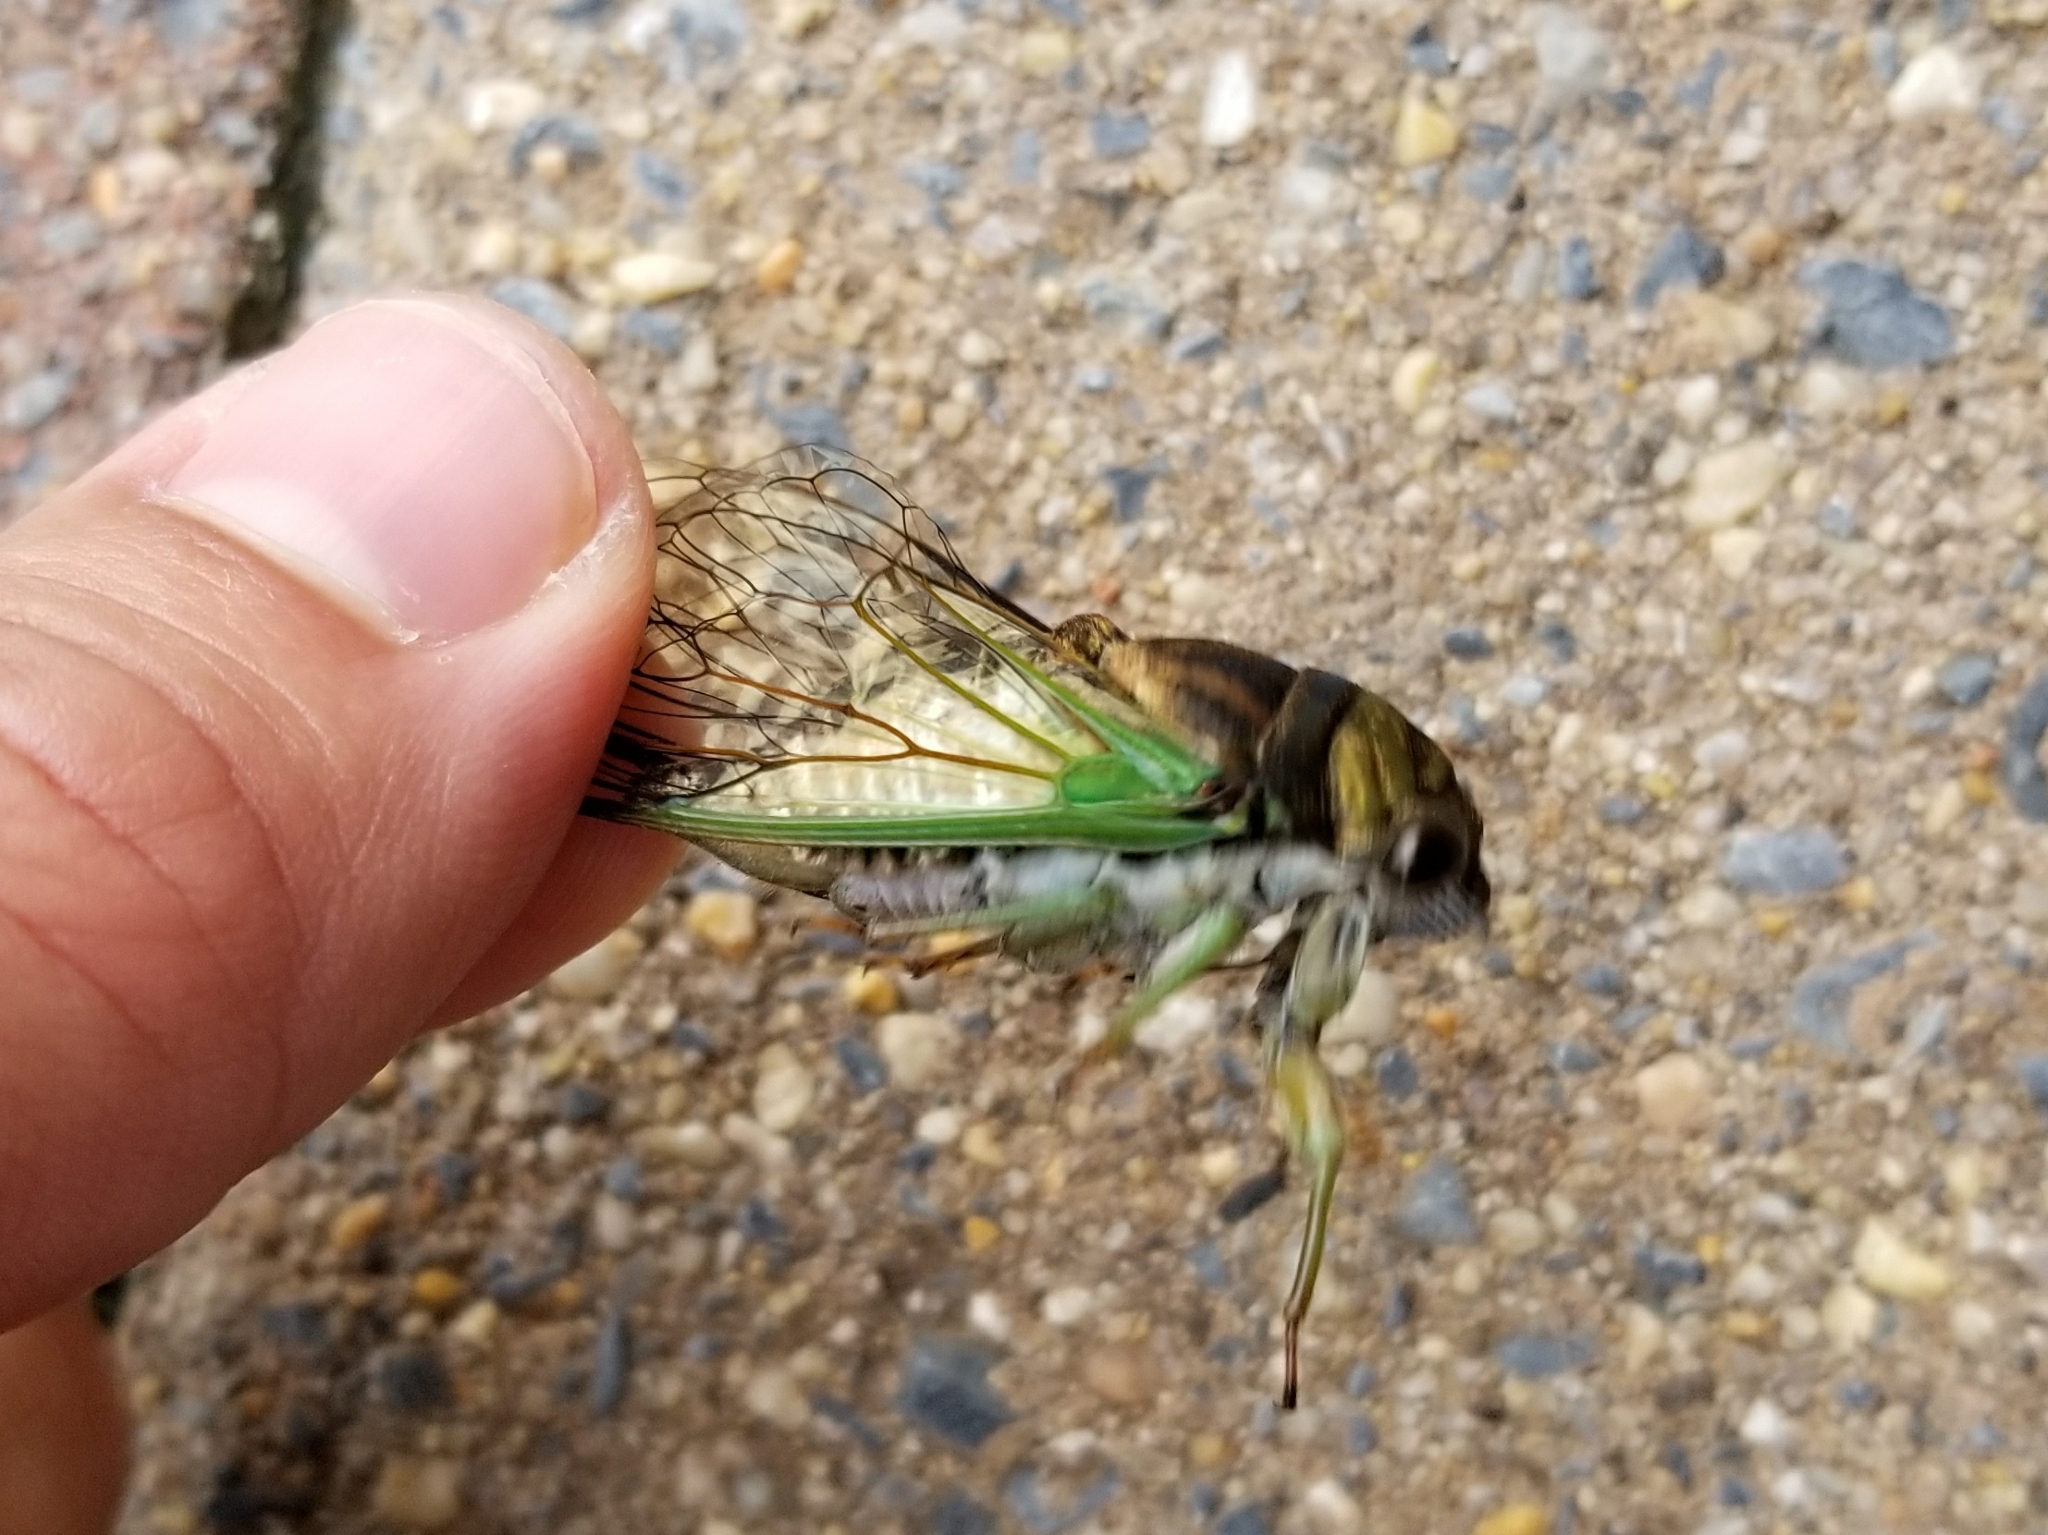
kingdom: Animalia
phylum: Arthropoda
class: Insecta
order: Hemiptera
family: Cicadidae
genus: Neotibicen
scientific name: Neotibicen tibicen
